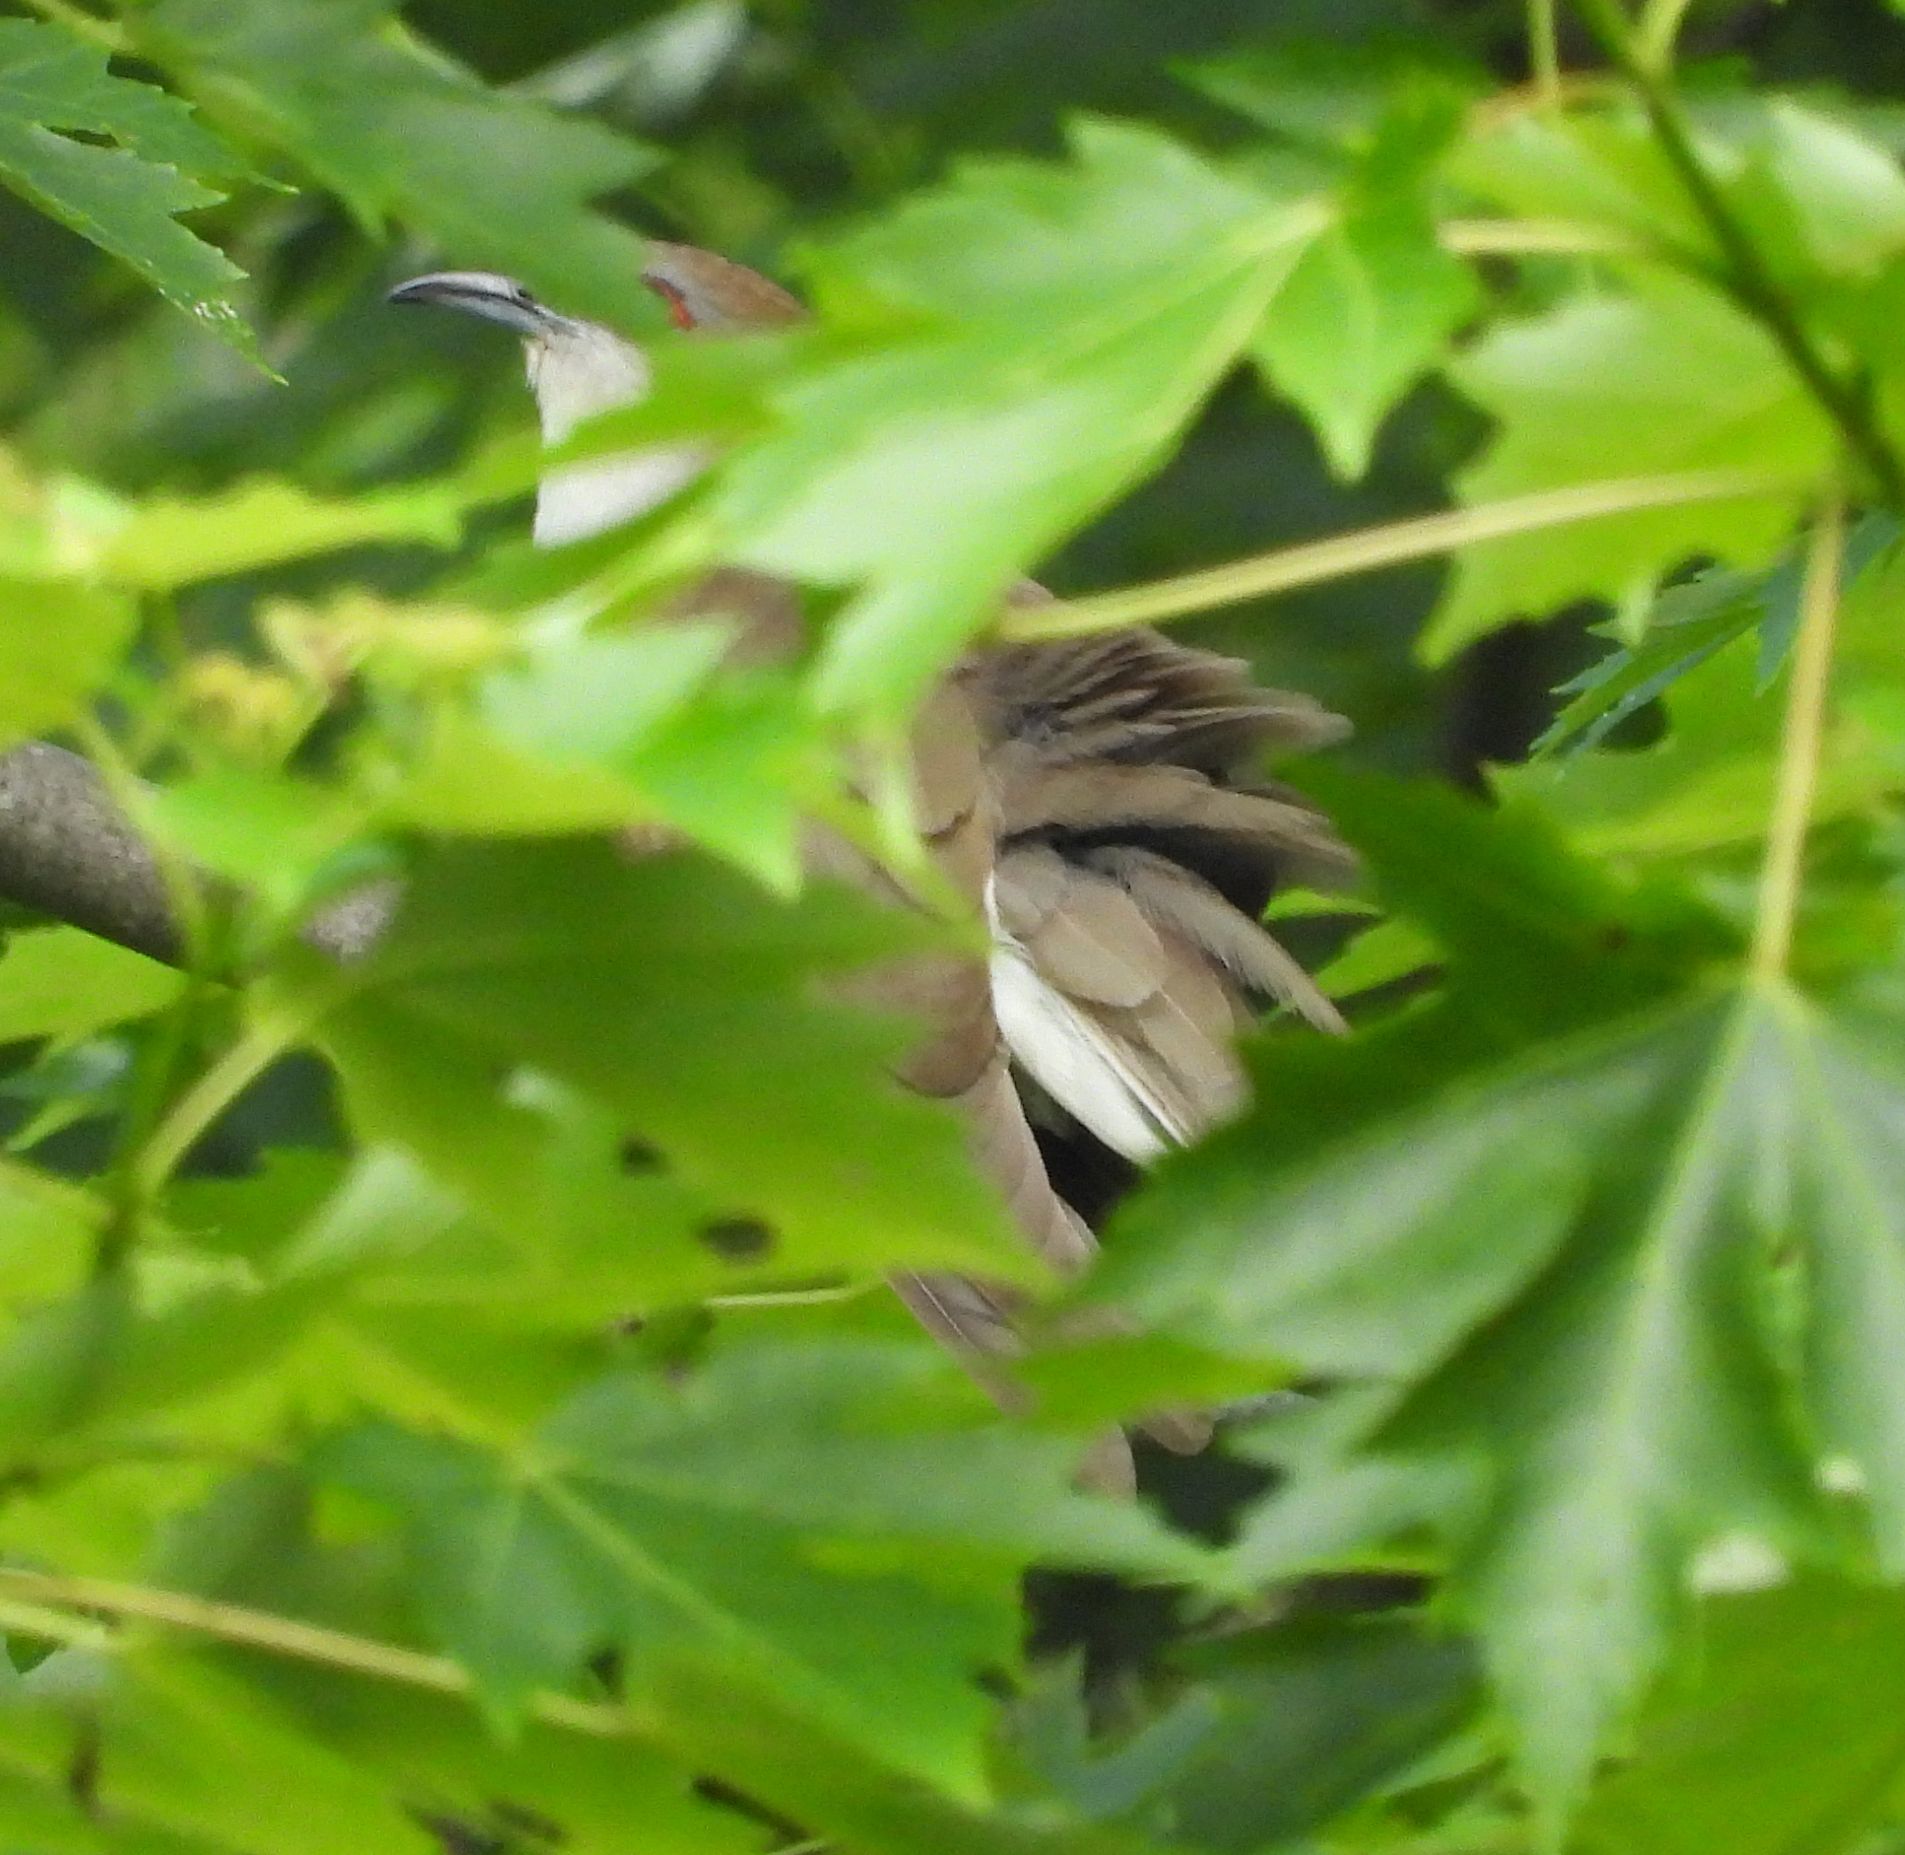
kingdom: Animalia
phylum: Chordata
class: Aves
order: Cuculiformes
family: Cuculidae
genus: Coccyzus
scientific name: Coccyzus erythropthalmus
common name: Black-billed cuckoo
